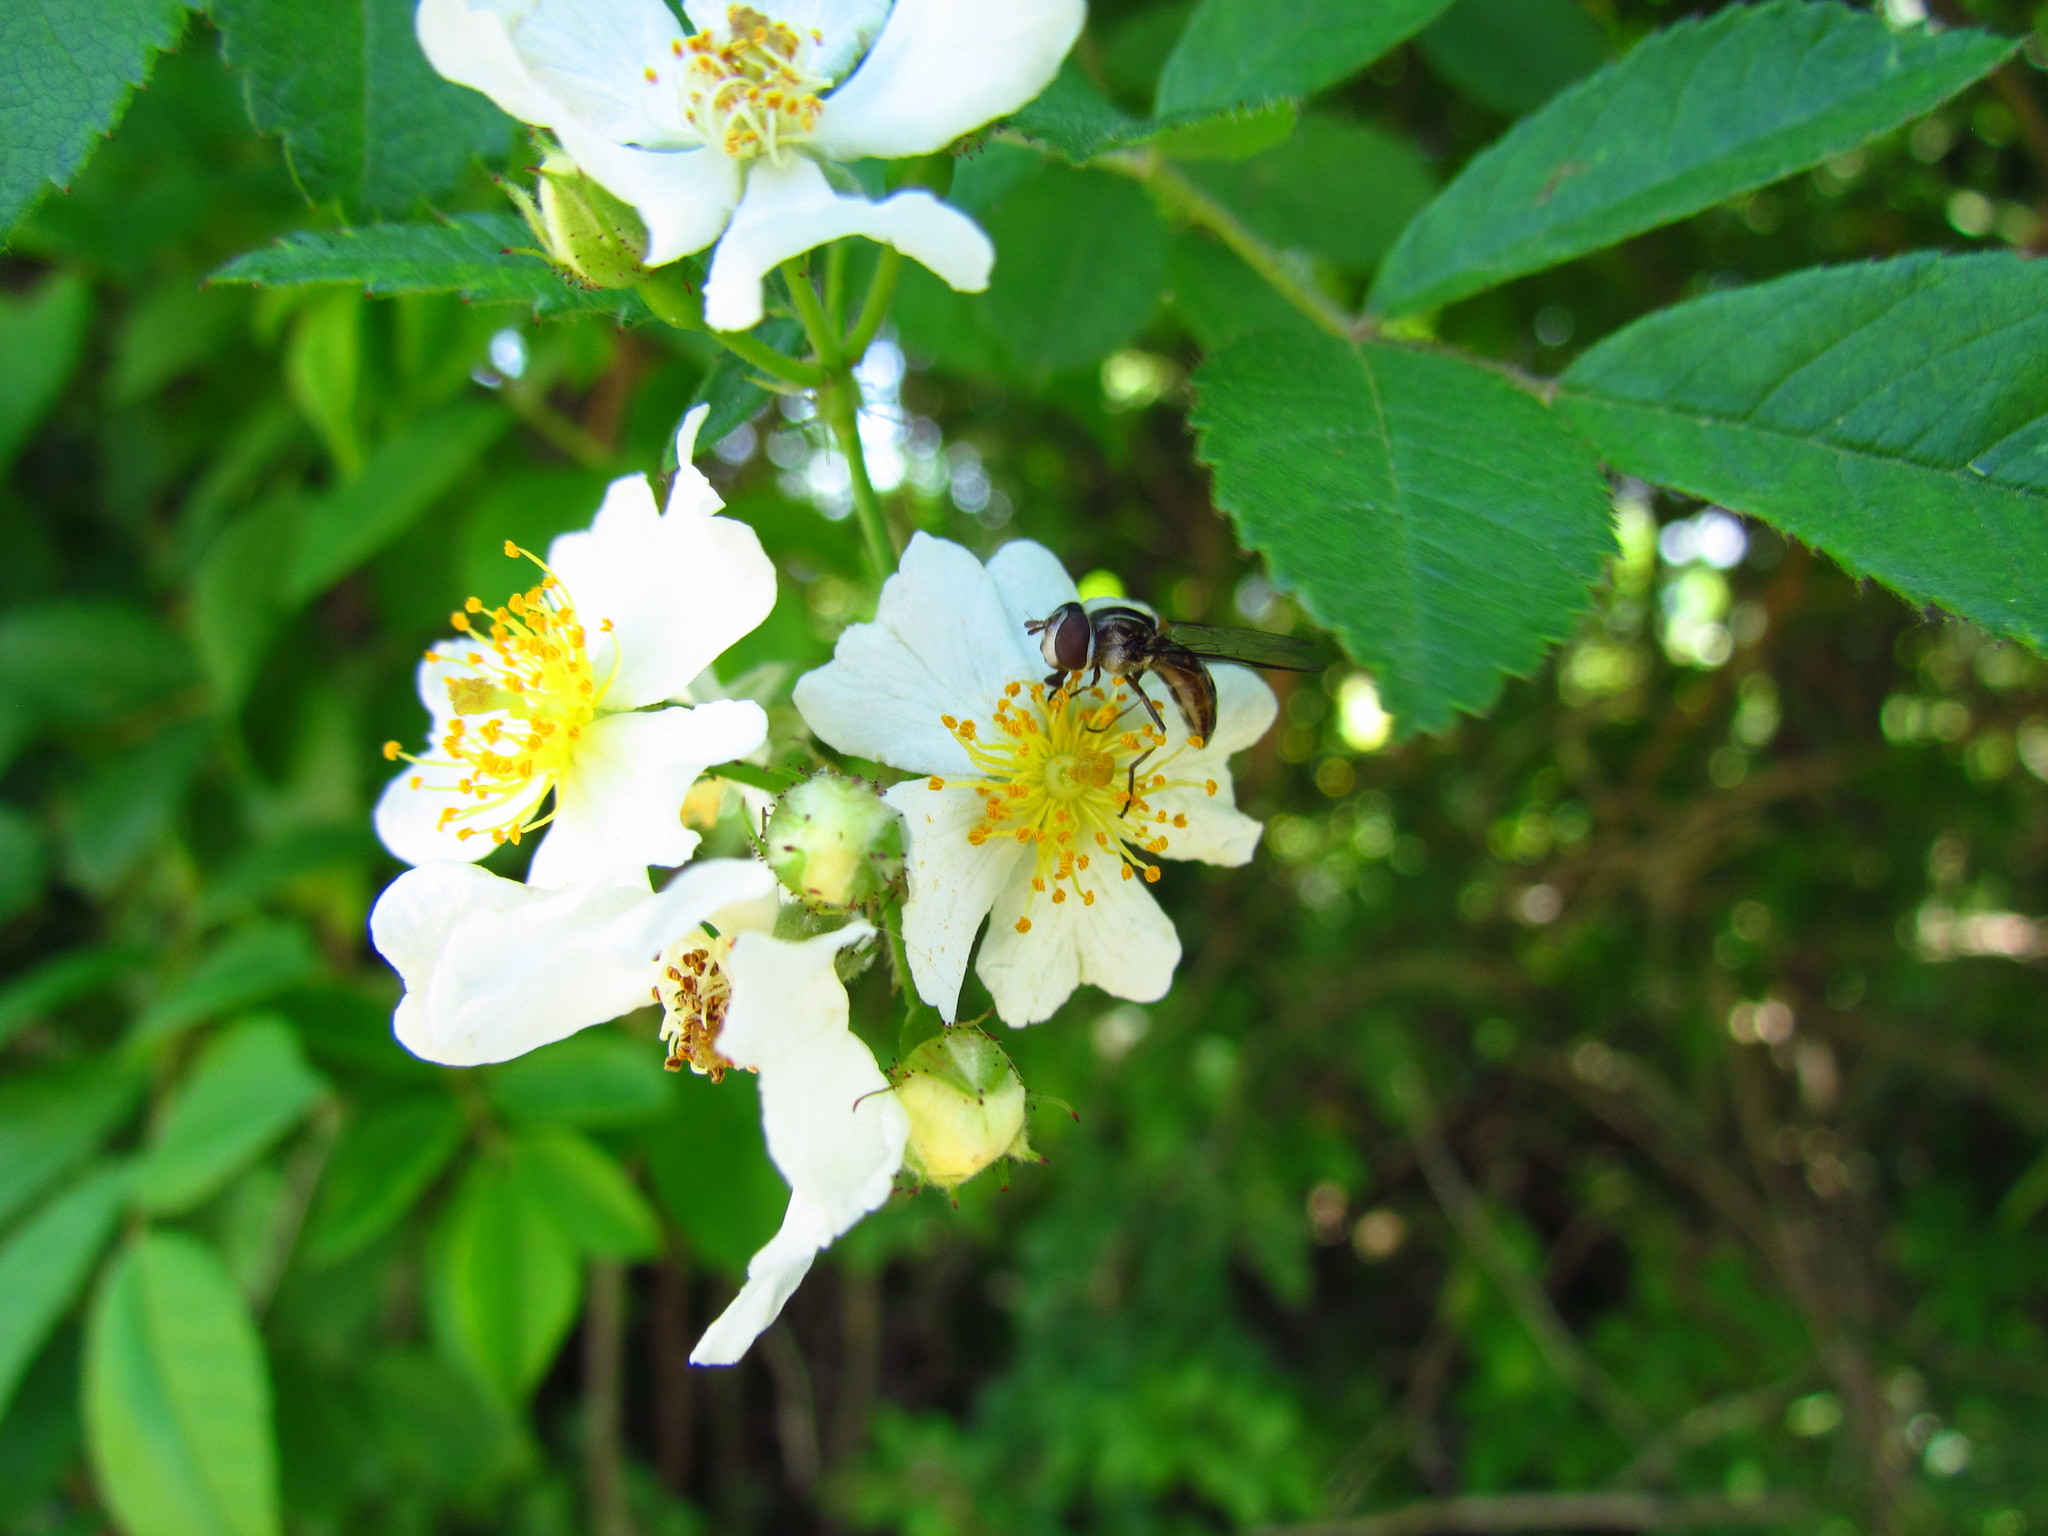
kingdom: Animalia
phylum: Arthropoda
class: Insecta
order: Diptera
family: Syrphidae
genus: Pseudoscaeva
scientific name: Pseudoscaeva meridionalis
